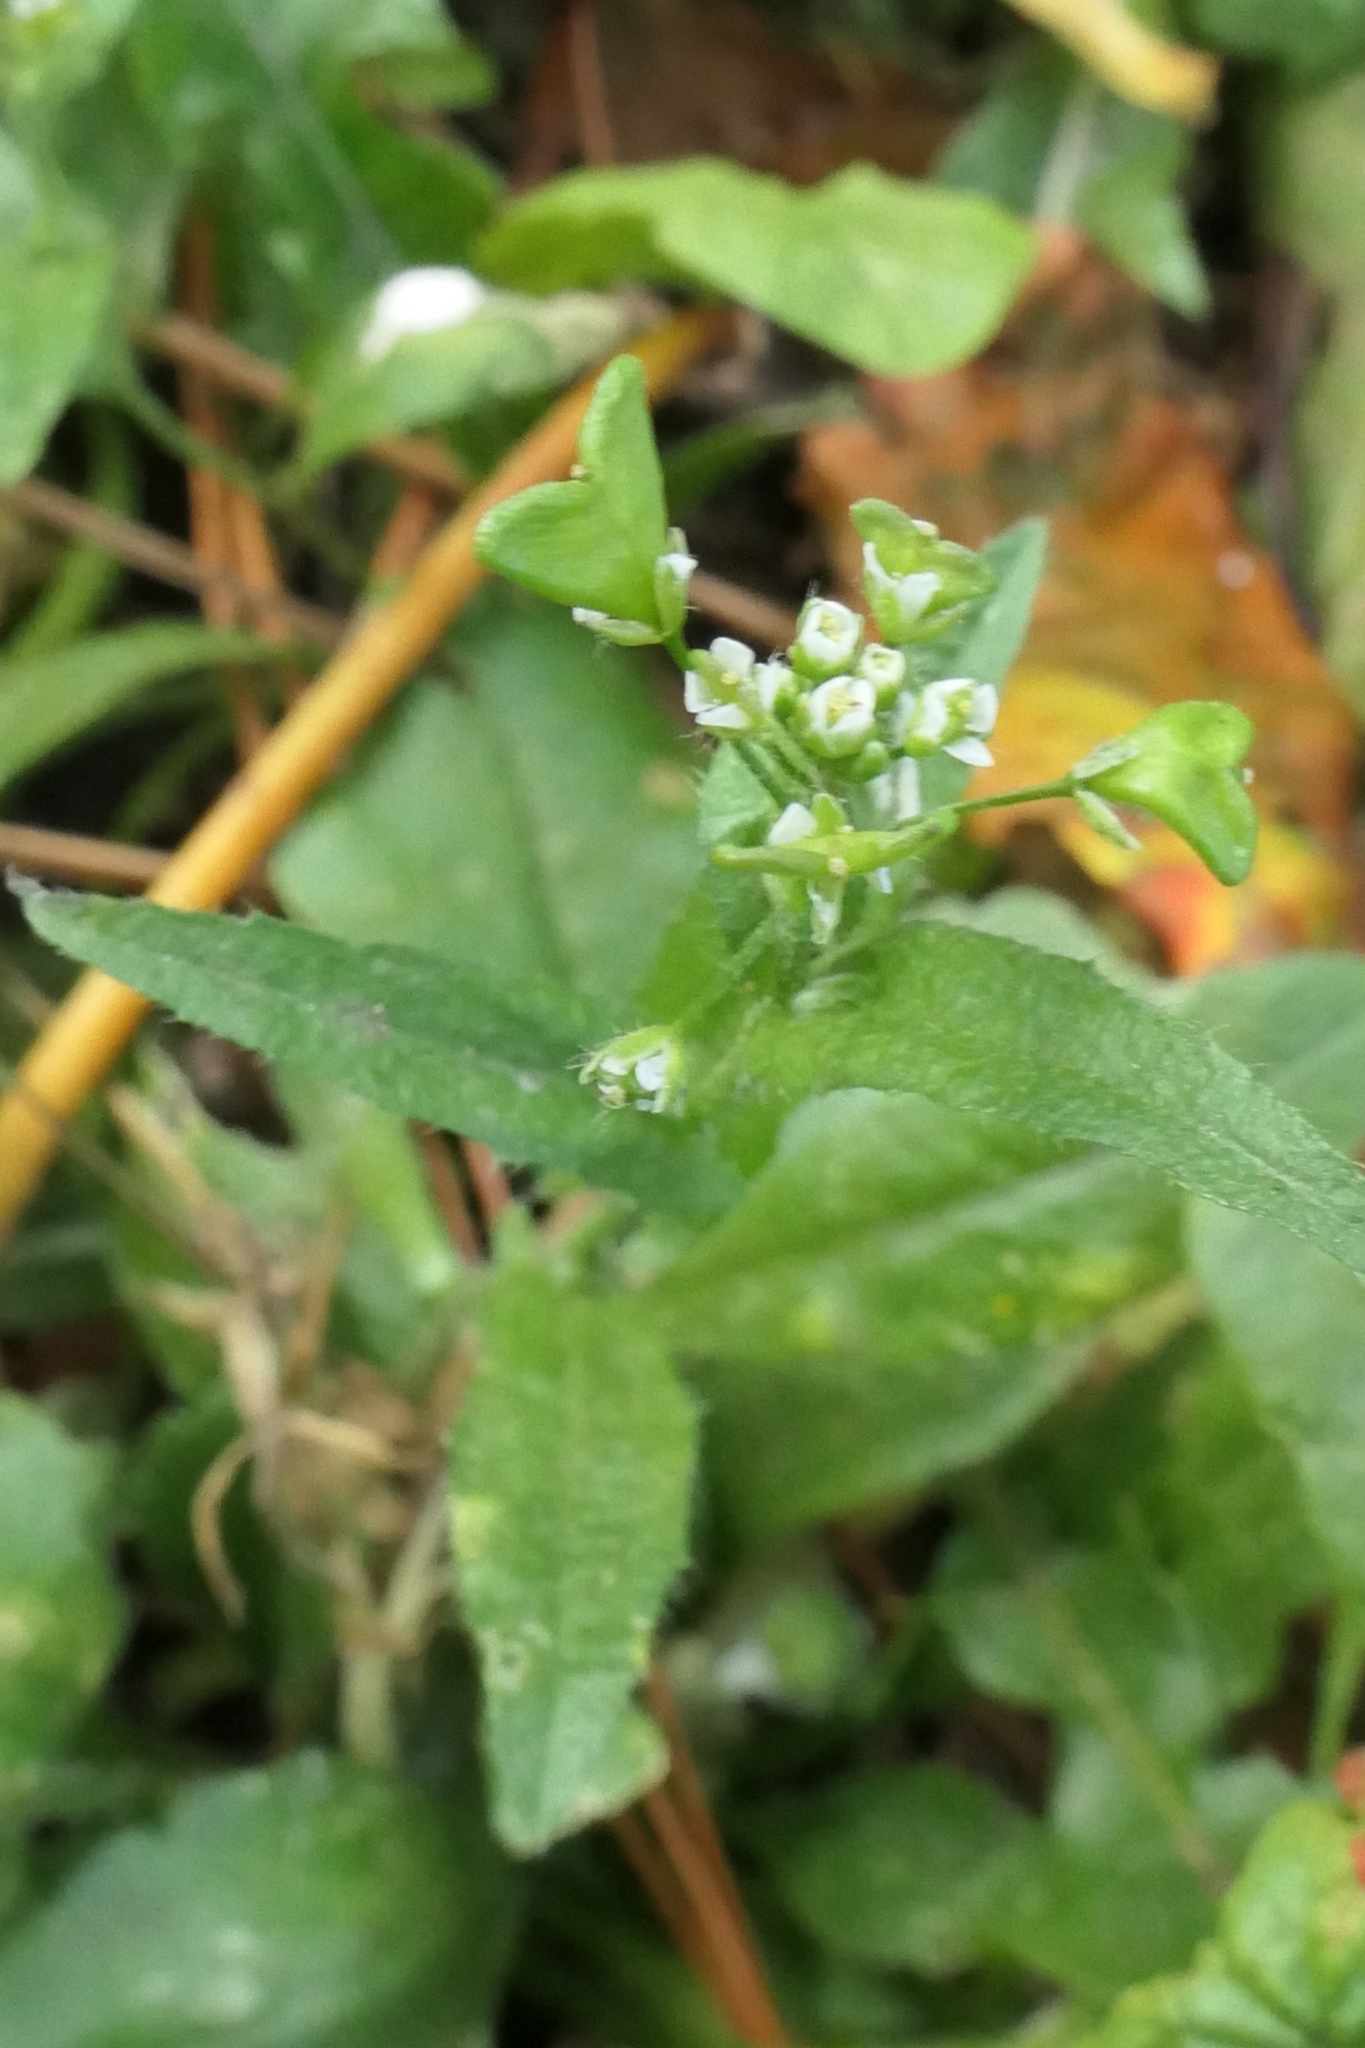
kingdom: Plantae
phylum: Tracheophyta
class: Magnoliopsida
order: Brassicales
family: Brassicaceae
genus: Capsella
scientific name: Capsella bursa-pastoris
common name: Shepherd's purse
